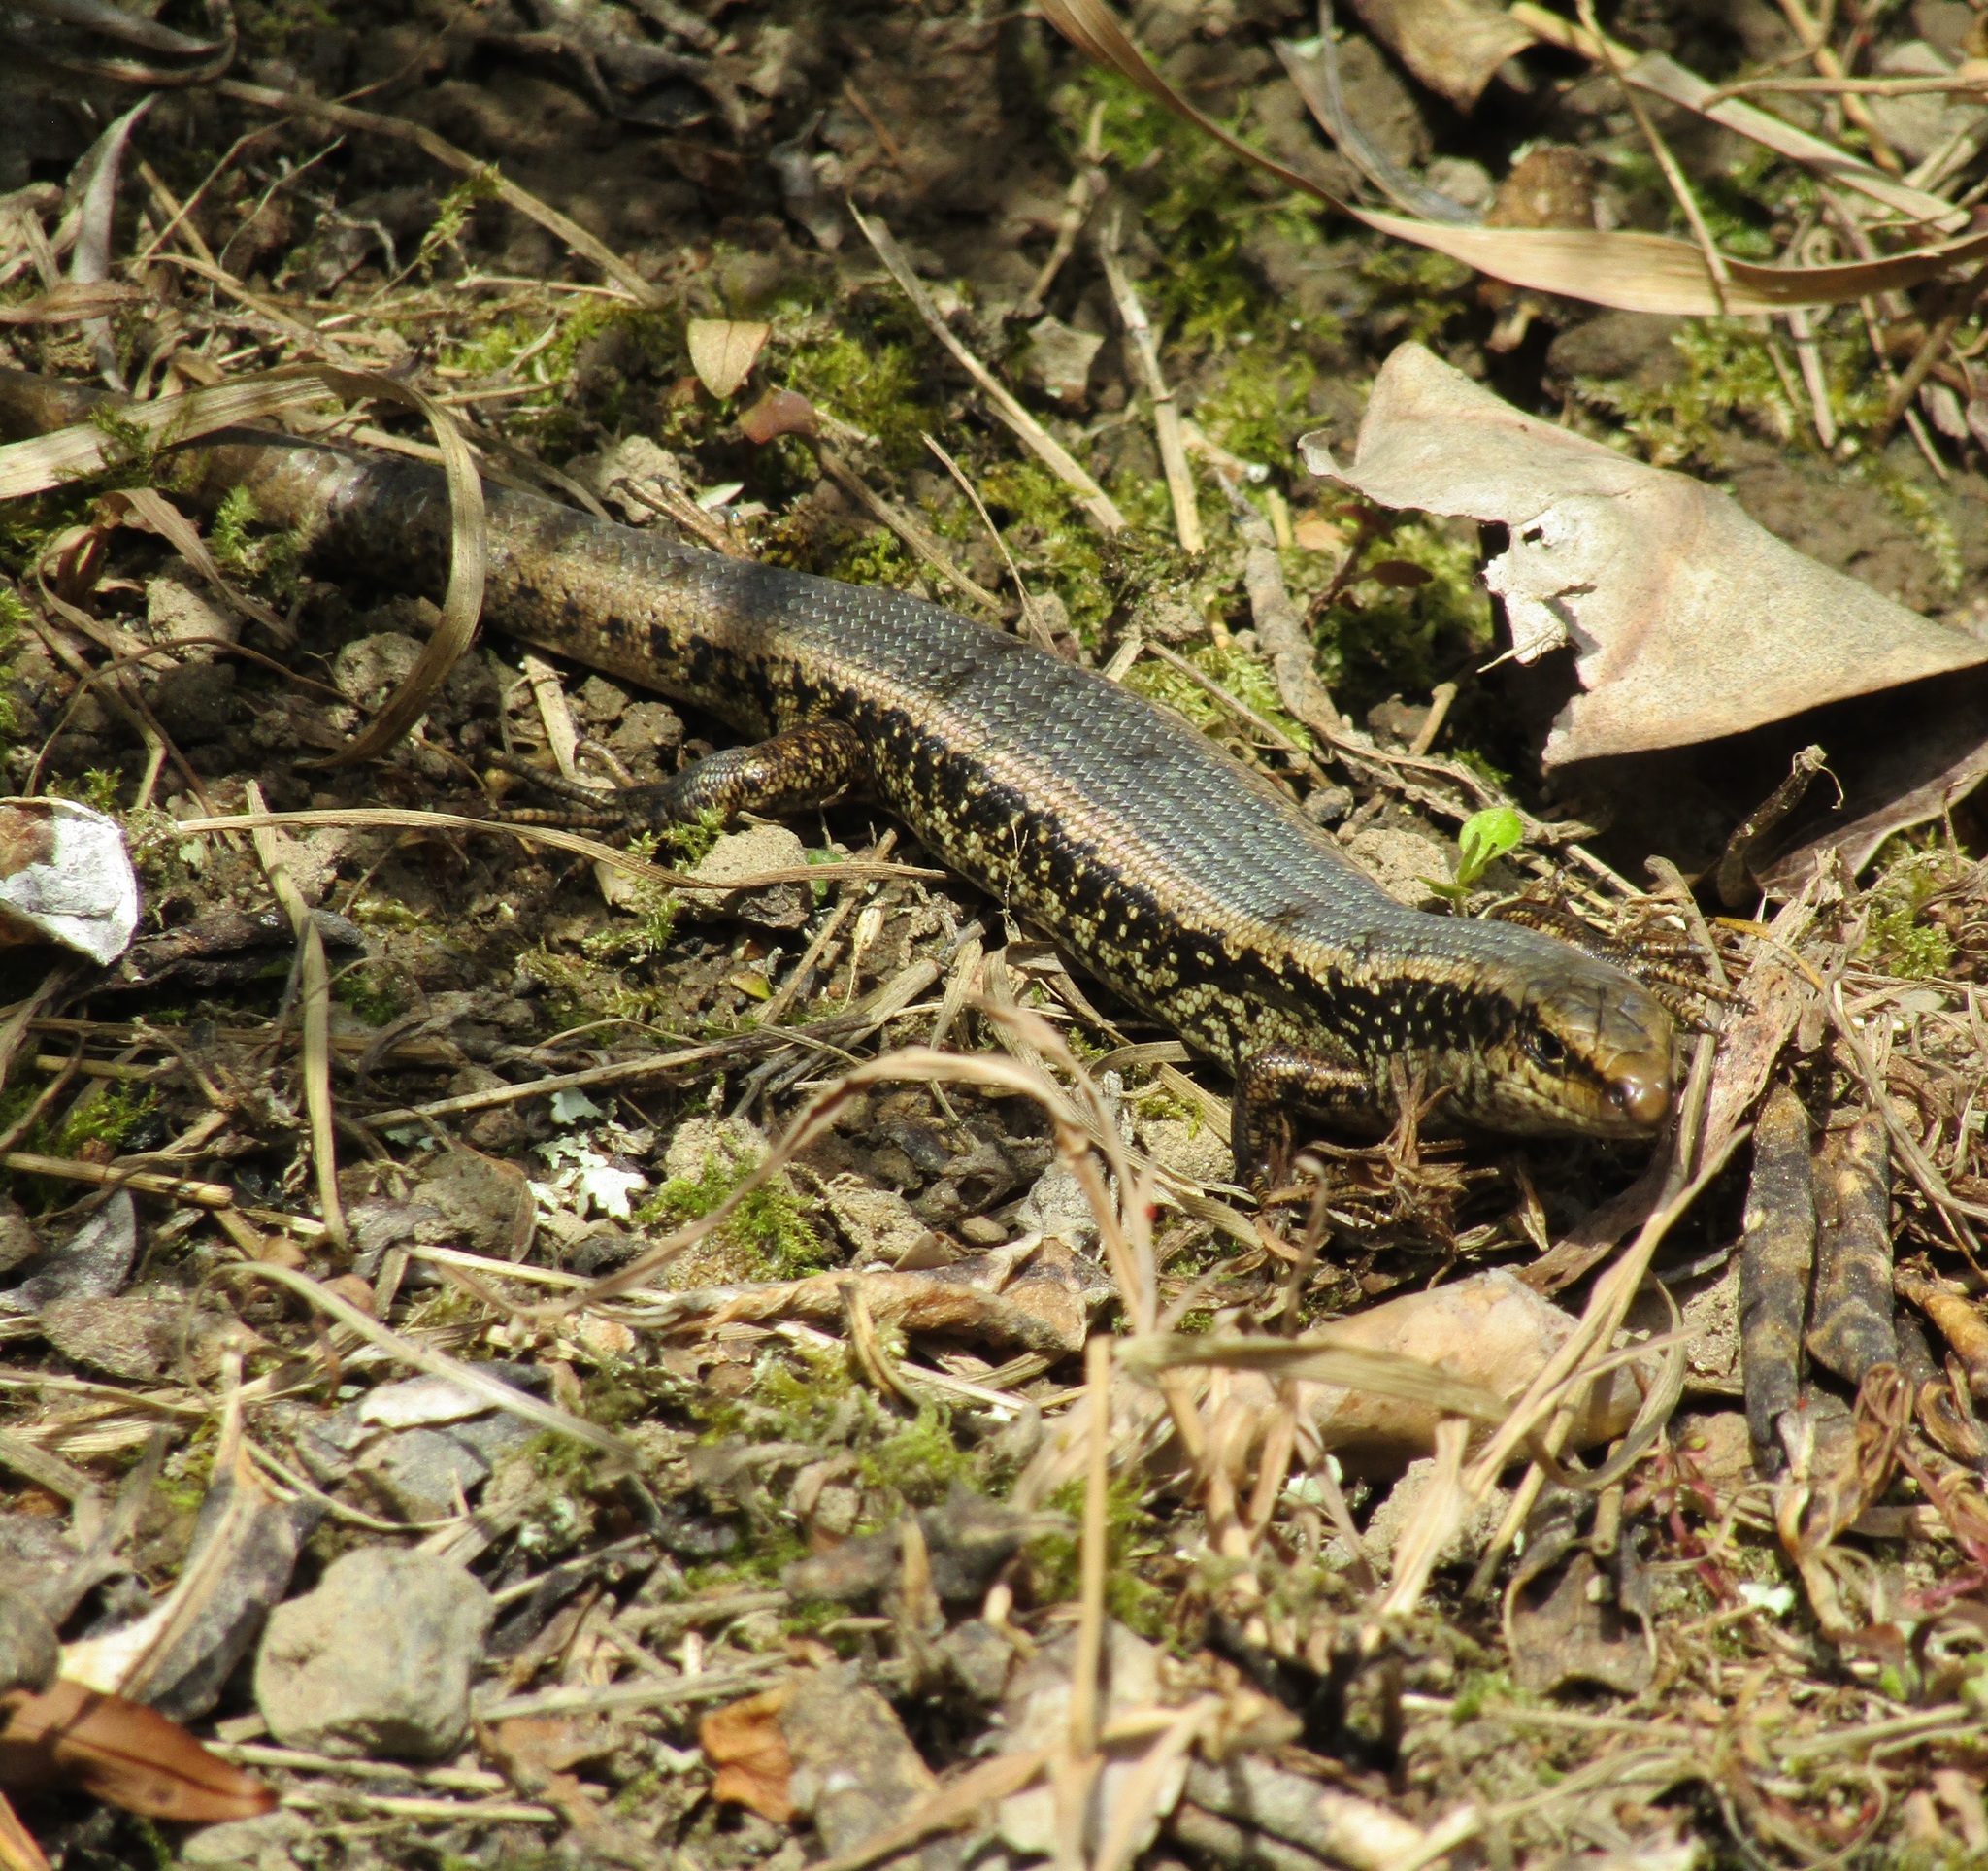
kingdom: Animalia
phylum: Chordata
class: Squamata
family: Scincidae
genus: Oligosoma
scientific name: Oligosoma kokowai
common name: Northern spotted skink
